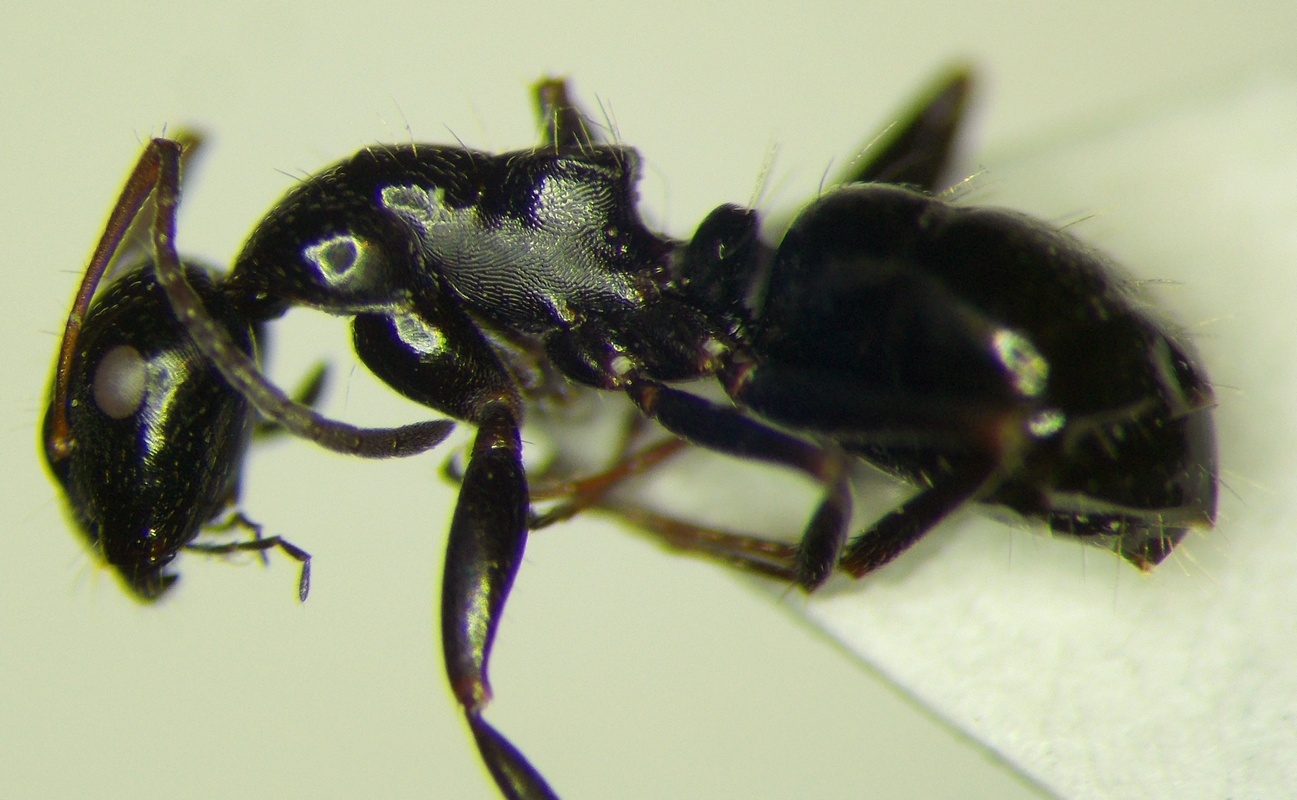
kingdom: Animalia
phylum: Arthropoda
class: Insecta
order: Hymenoptera
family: Formicidae
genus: Camponotus
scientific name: Camponotus piceus
